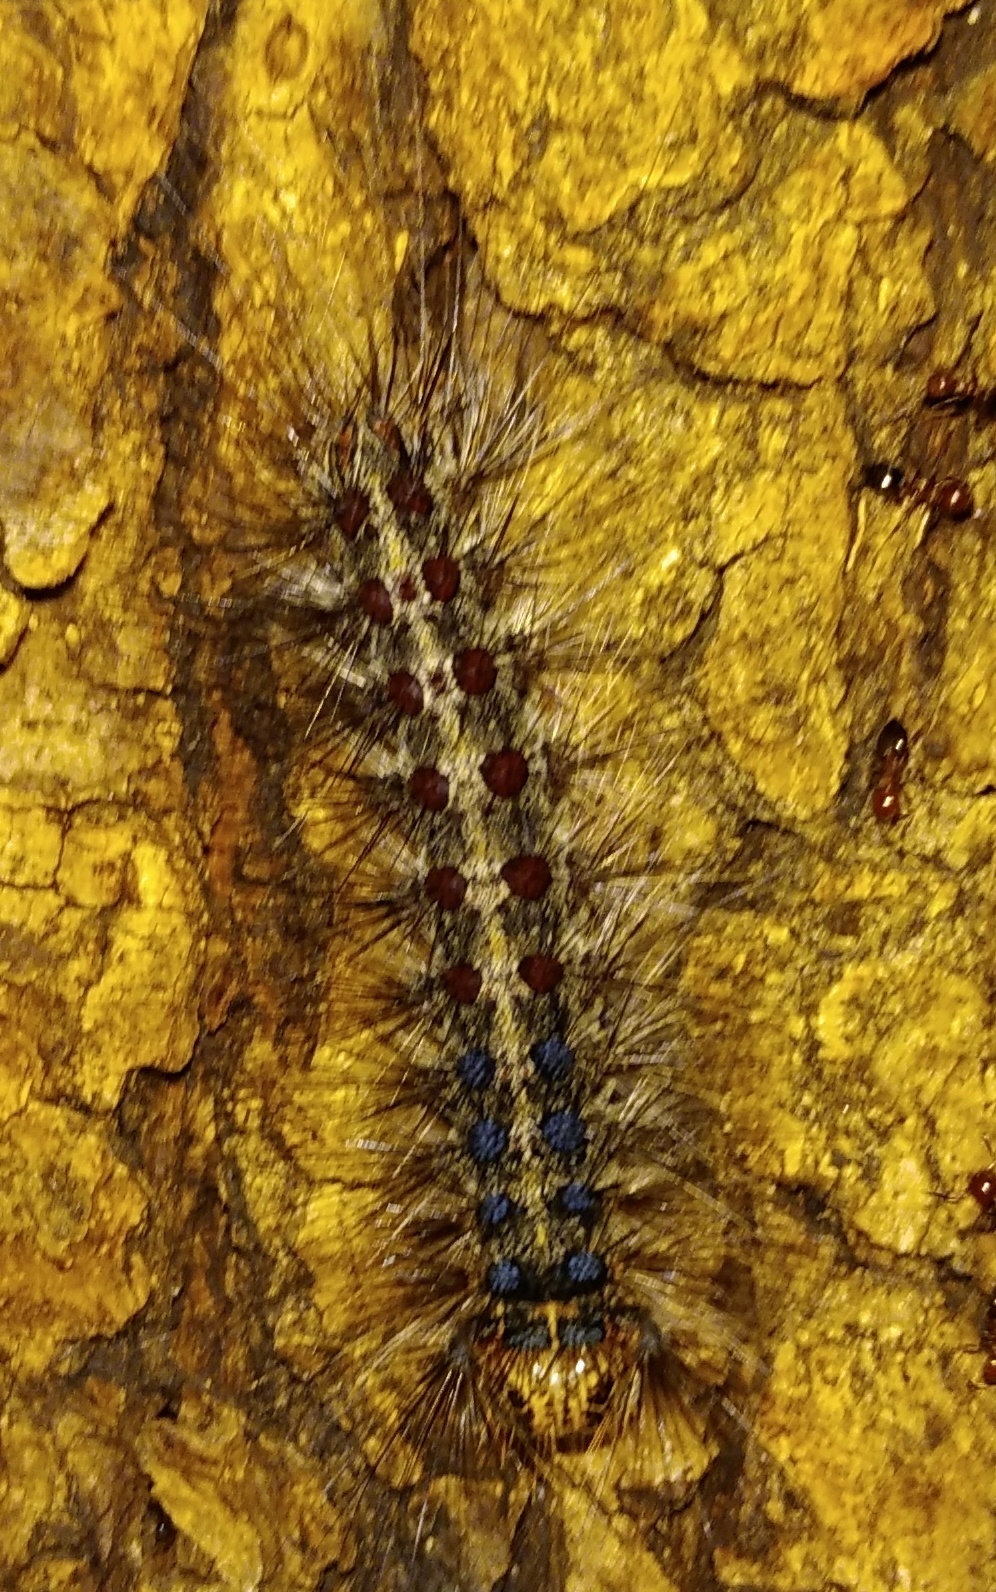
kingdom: Animalia
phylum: Arthropoda
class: Insecta
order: Lepidoptera
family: Erebidae
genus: Lymantria
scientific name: Lymantria dispar
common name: Gypsy moth
